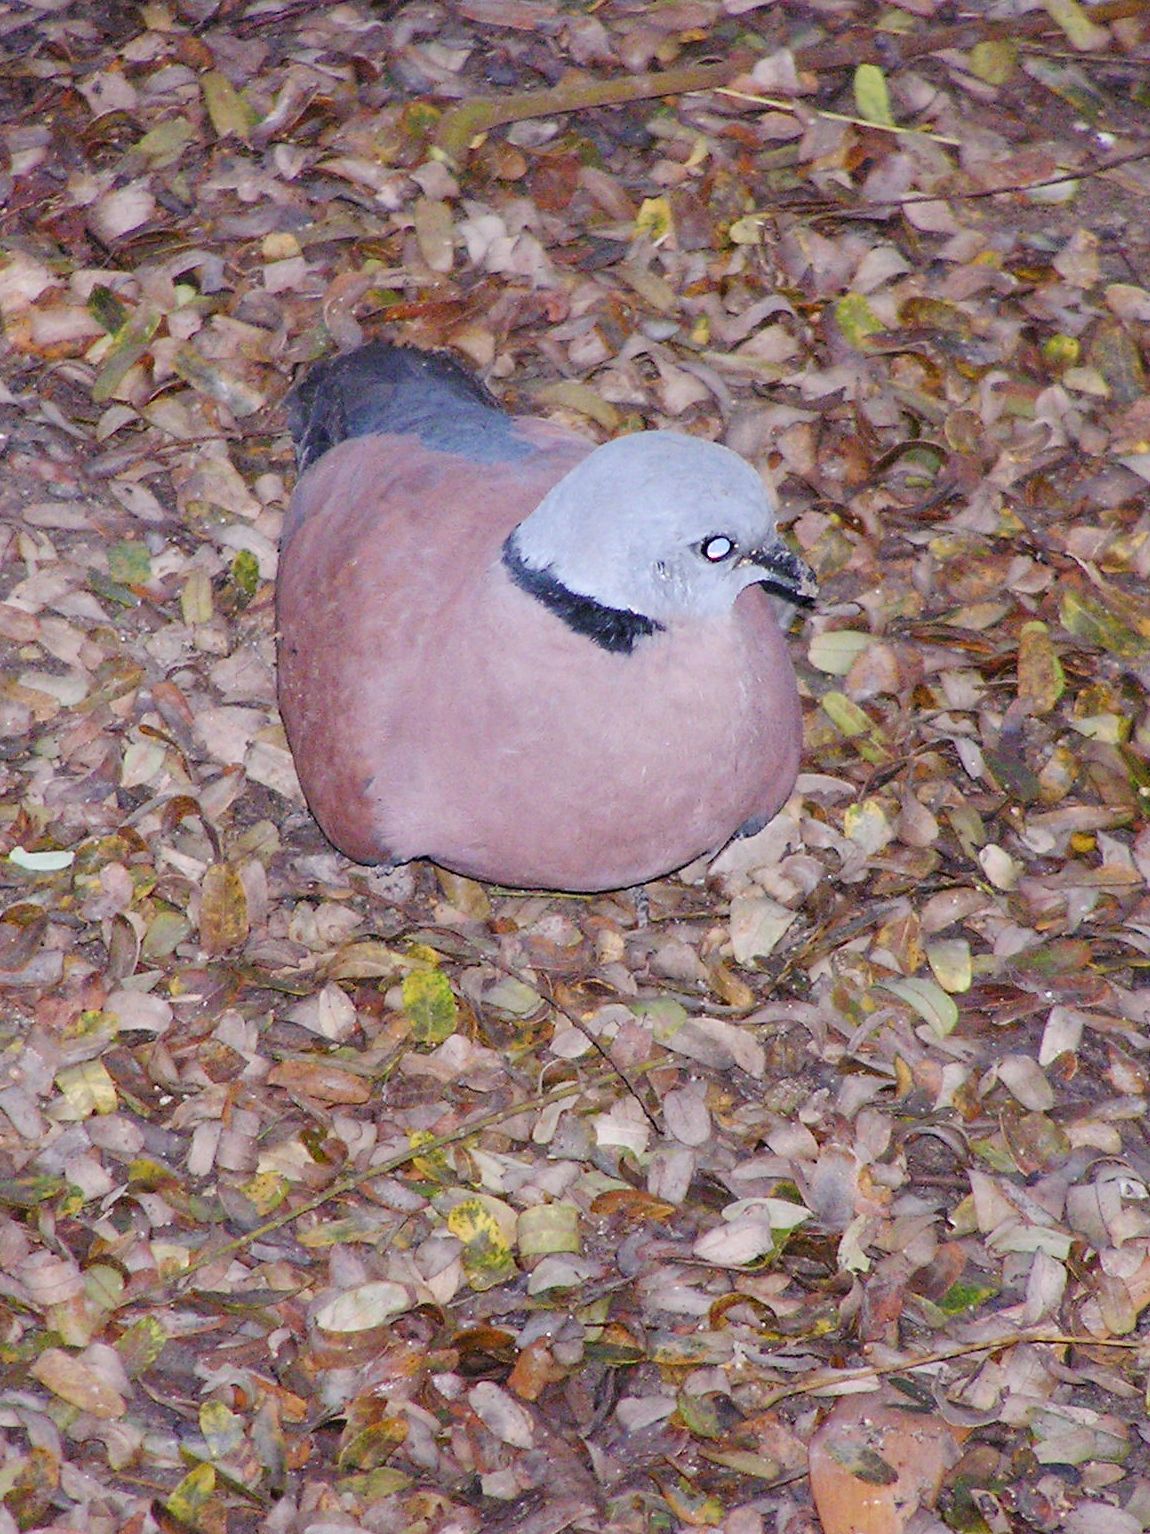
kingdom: Animalia
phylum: Chordata
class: Aves
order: Columbiformes
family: Columbidae
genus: Streptopelia
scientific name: Streptopelia tranquebarica
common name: Red turtle dove
